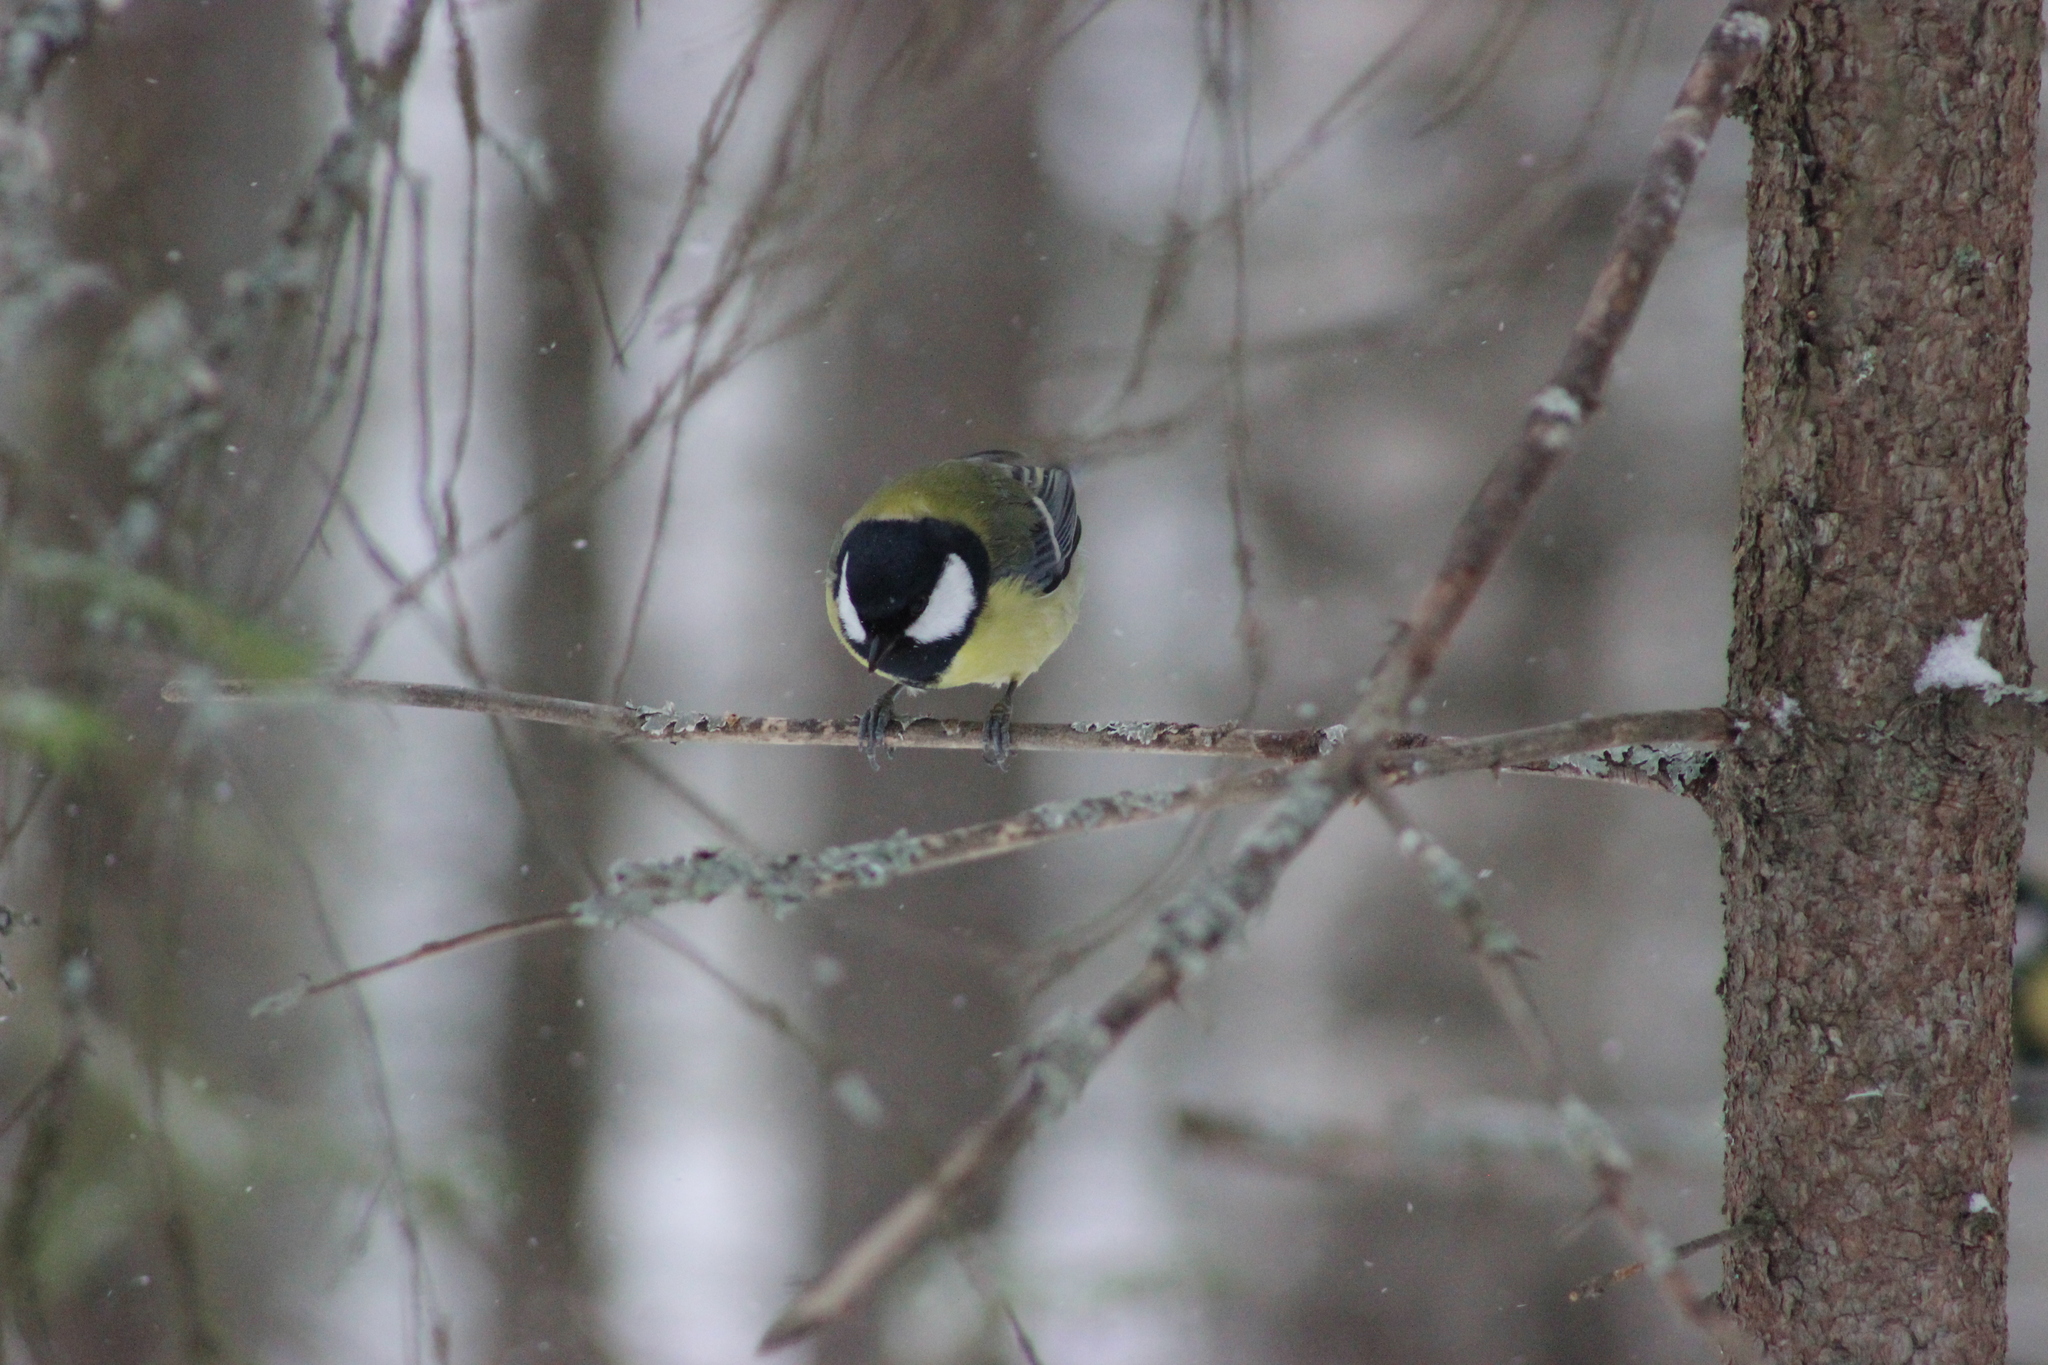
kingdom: Animalia
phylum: Chordata
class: Aves
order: Passeriformes
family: Paridae
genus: Parus
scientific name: Parus major
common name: Great tit
